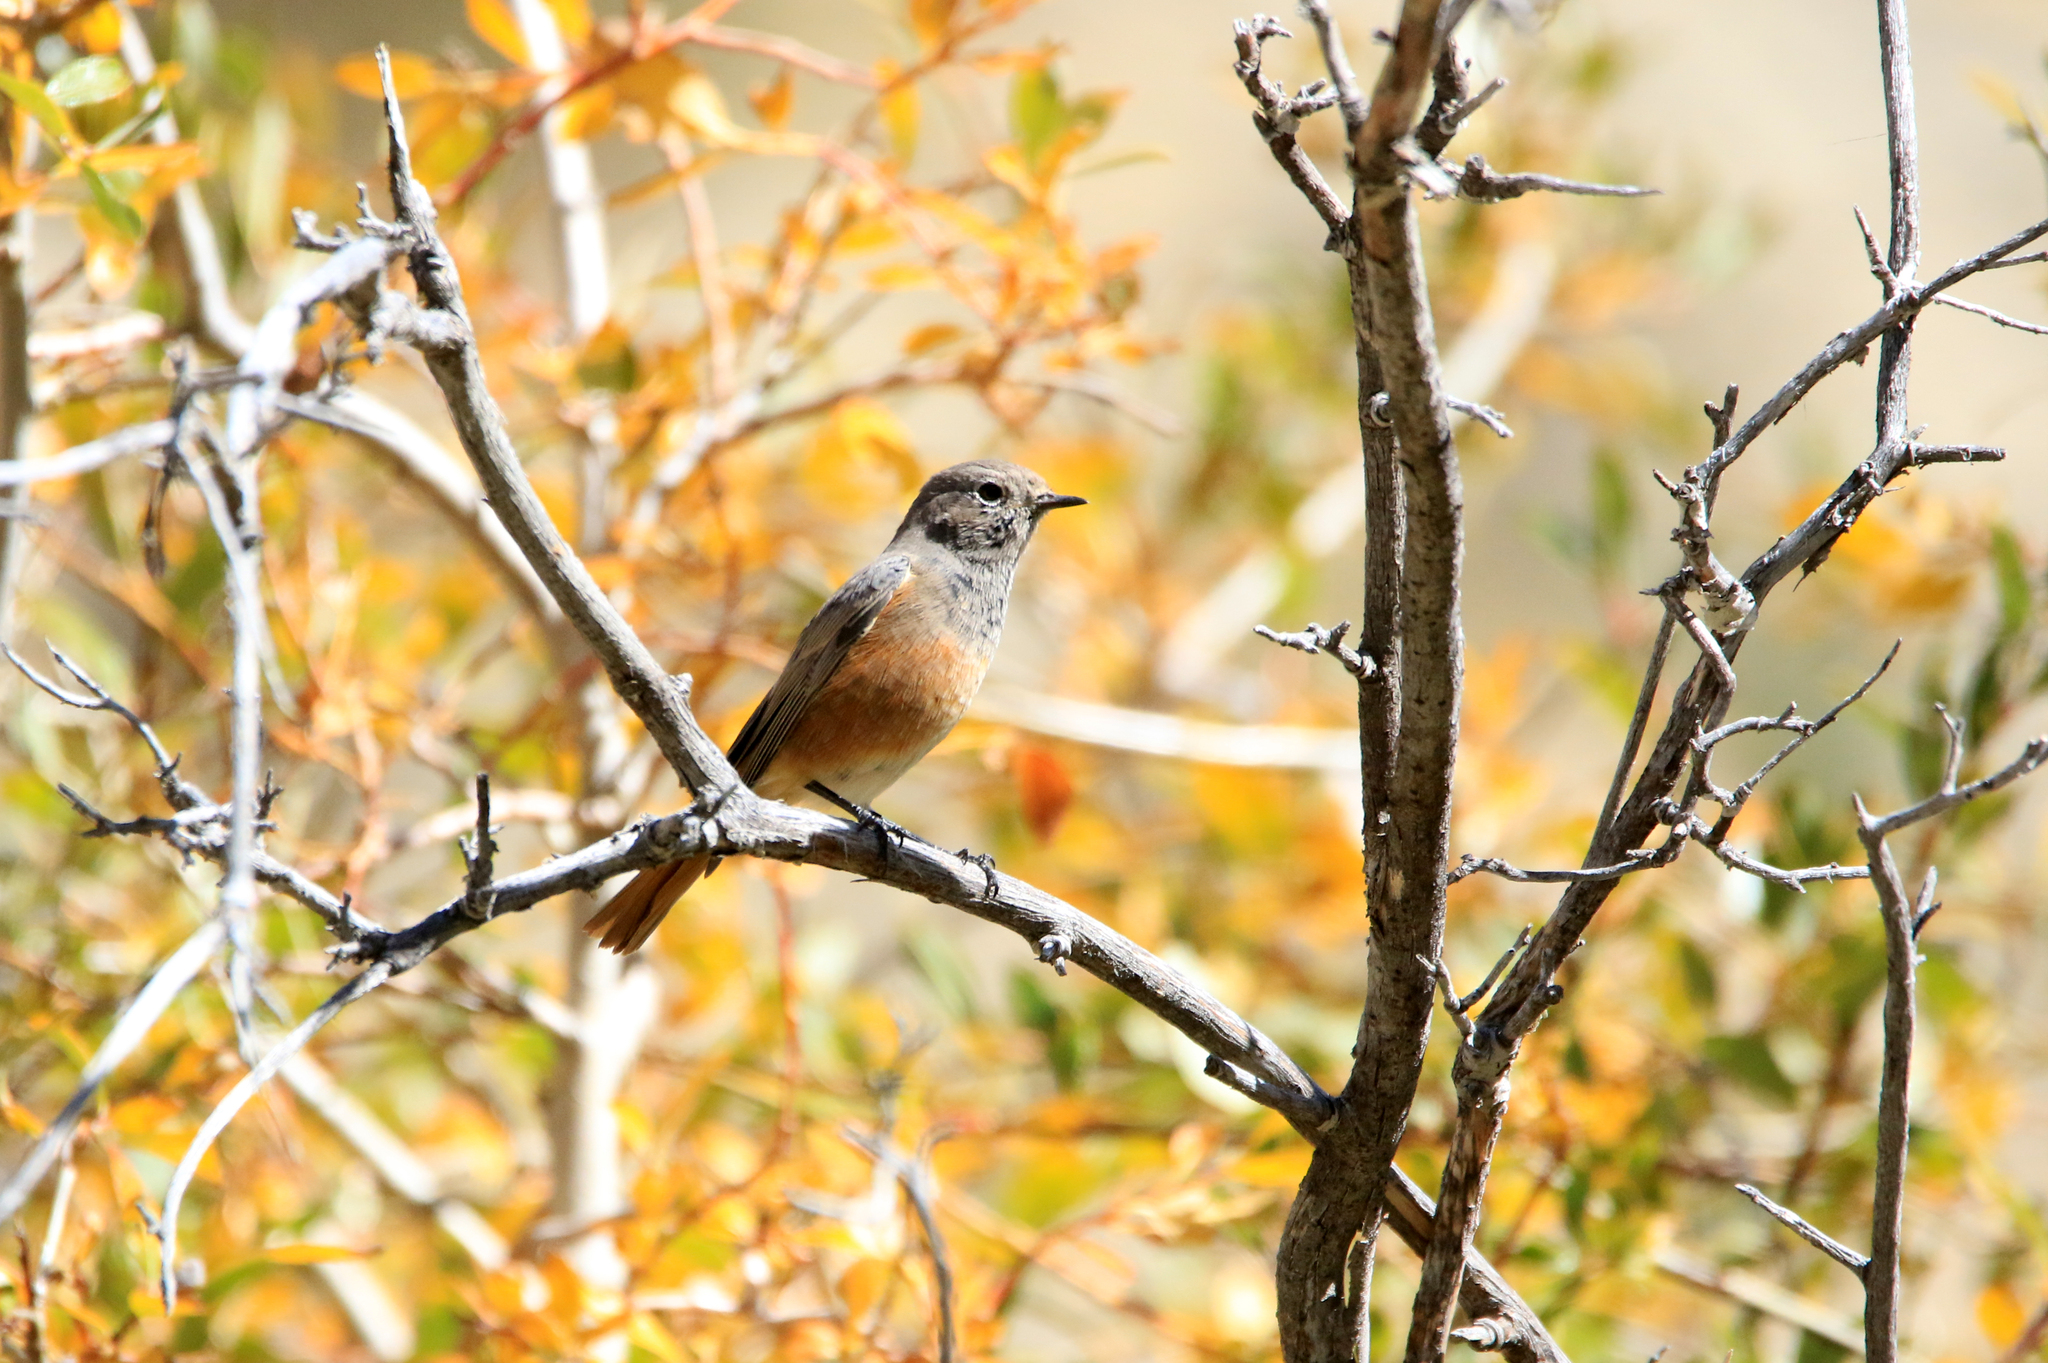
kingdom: Animalia
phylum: Chordata
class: Aves
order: Passeriformes
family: Muscicapidae
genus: Phoenicurus
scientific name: Phoenicurus phoenicurus
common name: Common redstart
